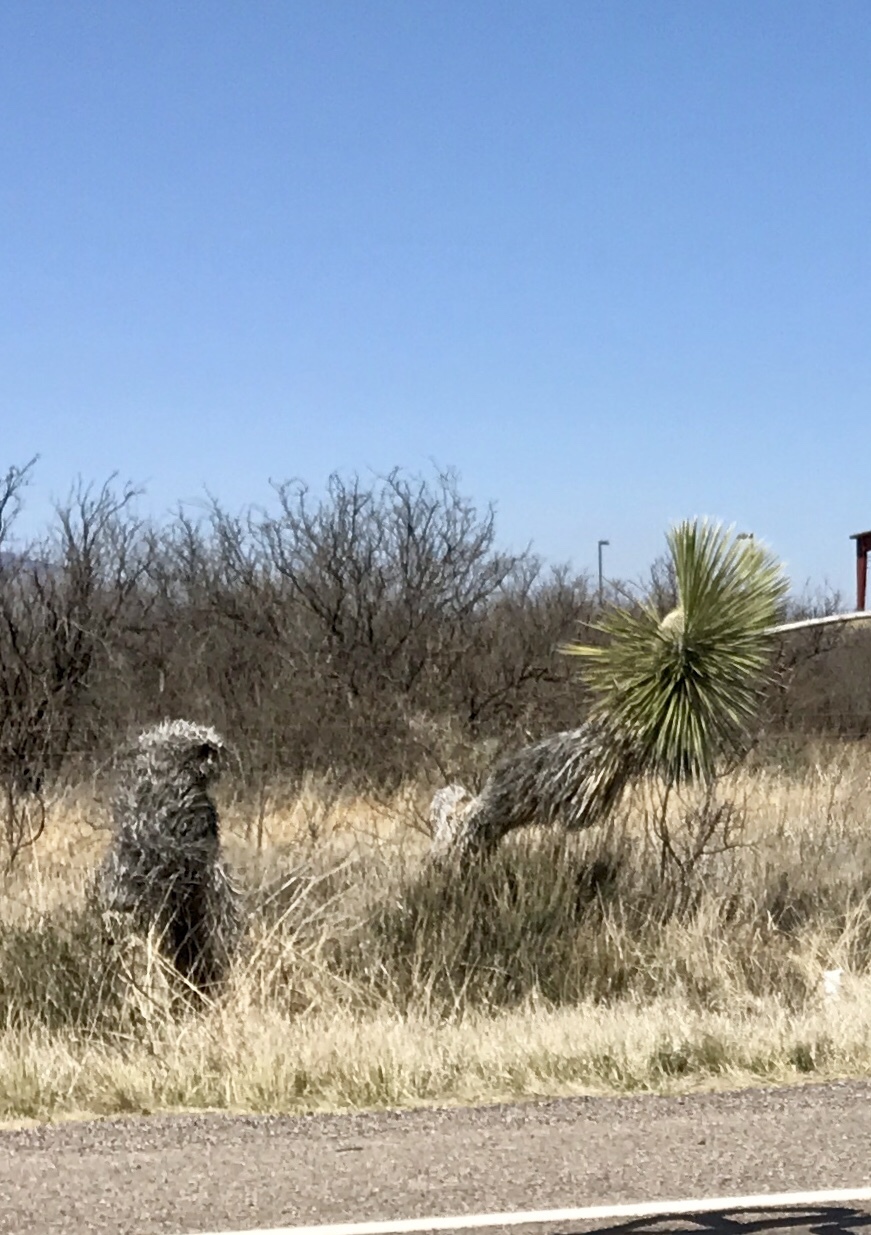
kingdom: Plantae
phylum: Tracheophyta
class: Liliopsida
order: Asparagales
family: Asparagaceae
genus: Yucca
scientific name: Yucca elata
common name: Palmella
